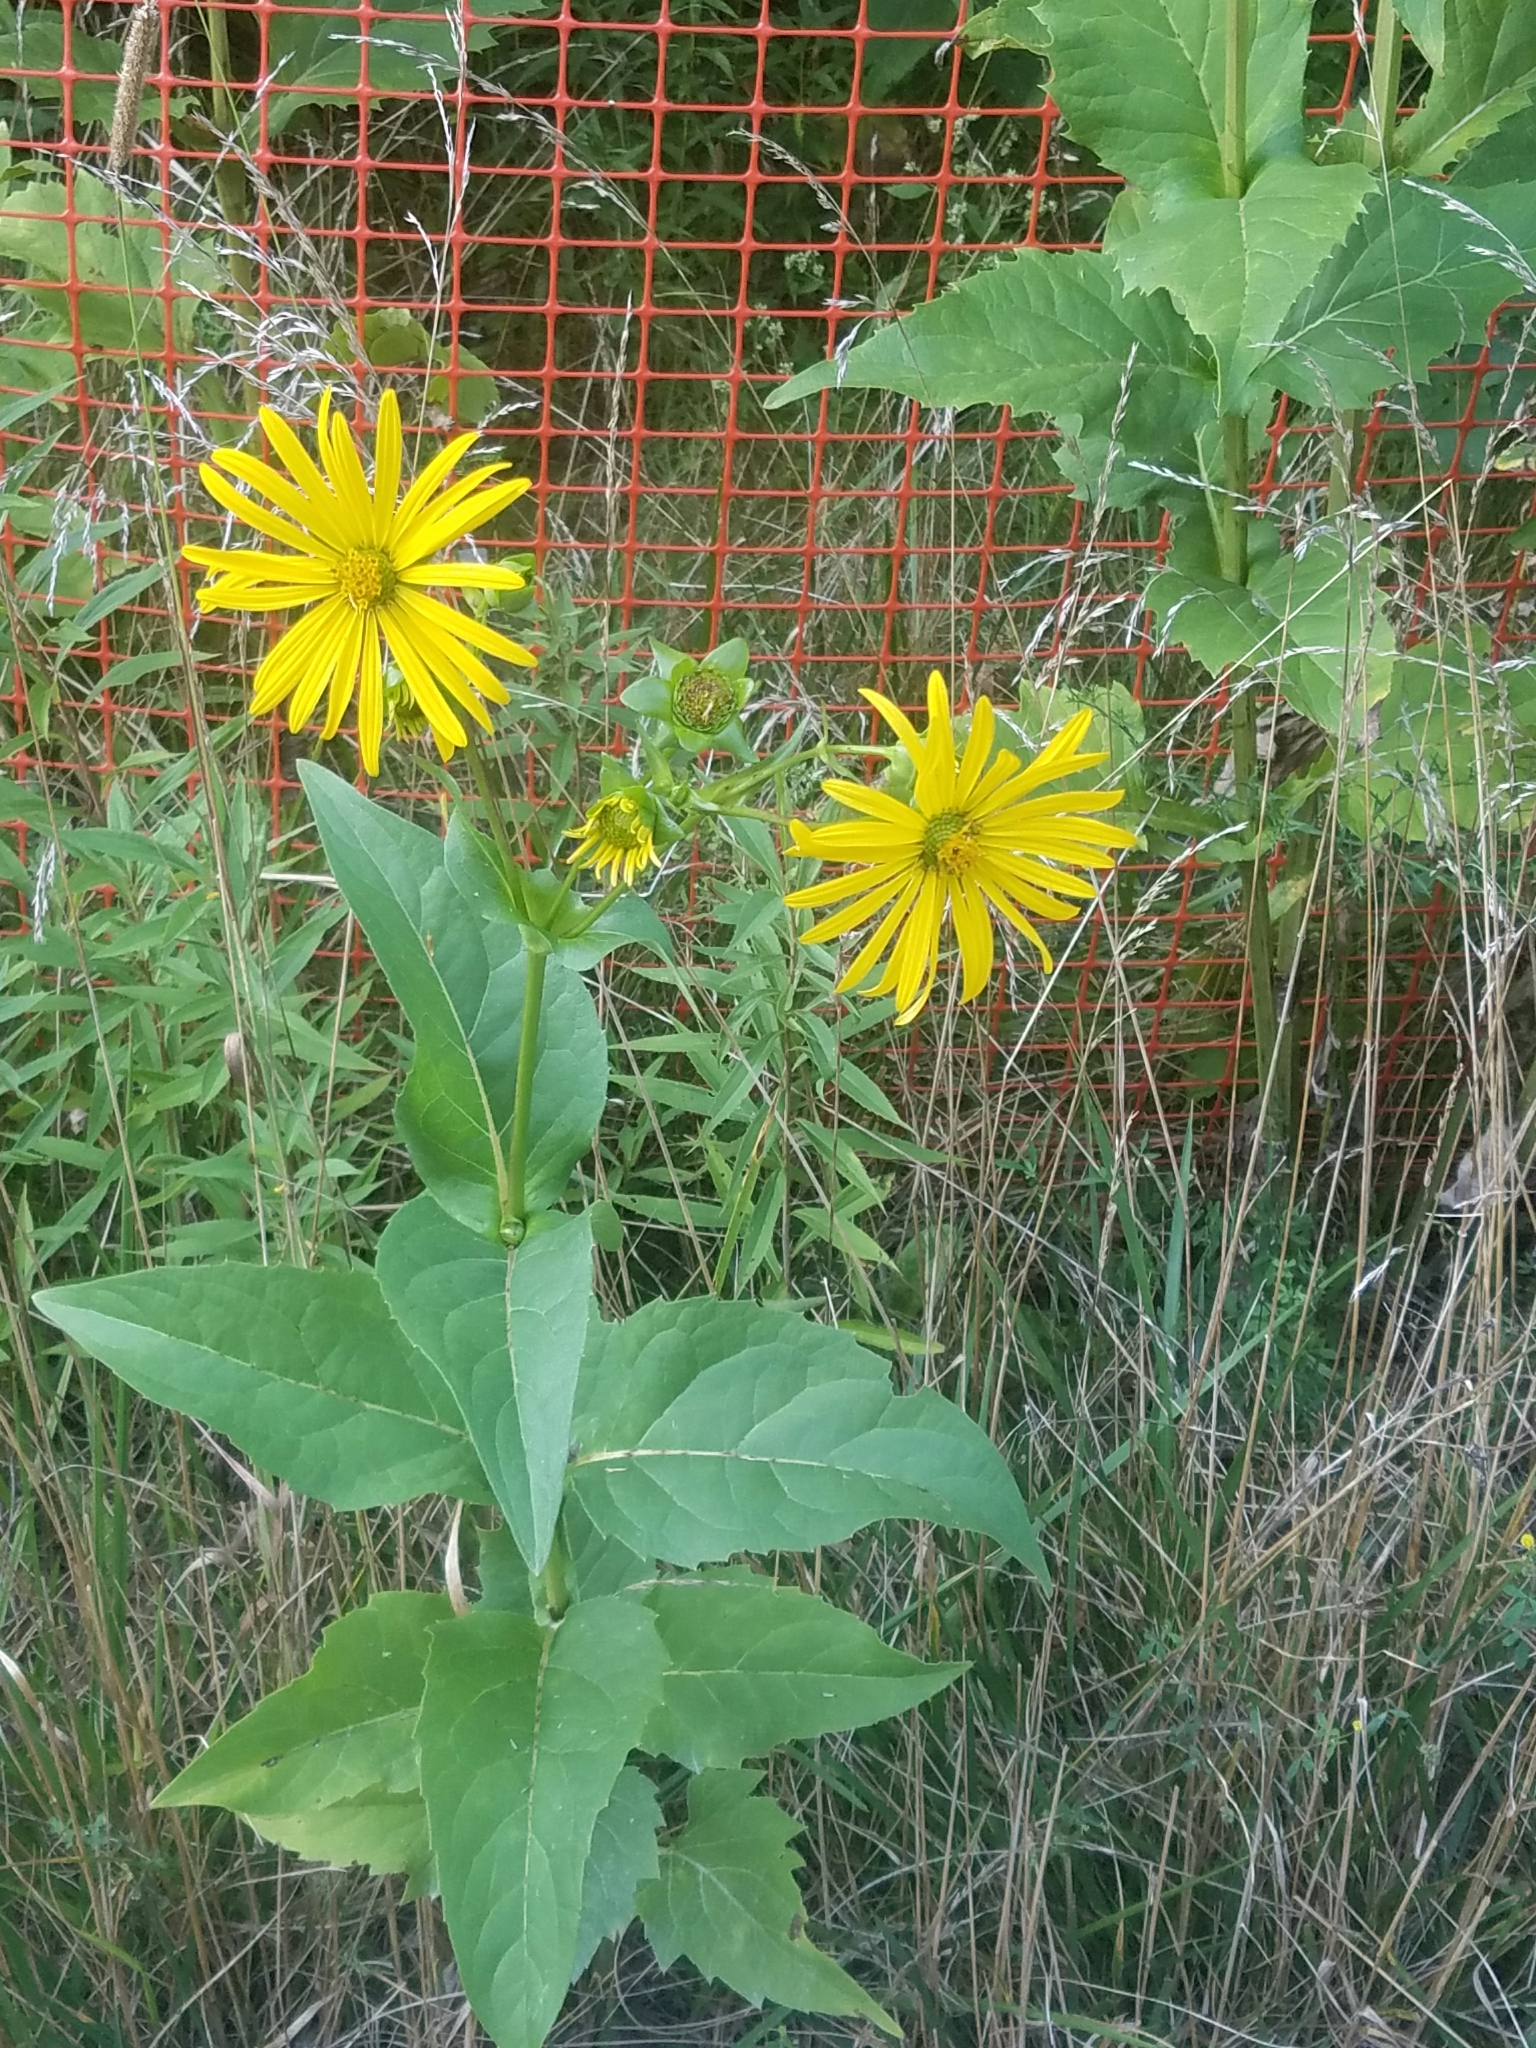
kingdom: Plantae
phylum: Tracheophyta
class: Magnoliopsida
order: Asterales
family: Asteraceae
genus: Silphium
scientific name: Silphium perfoliatum
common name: Cup-plant
